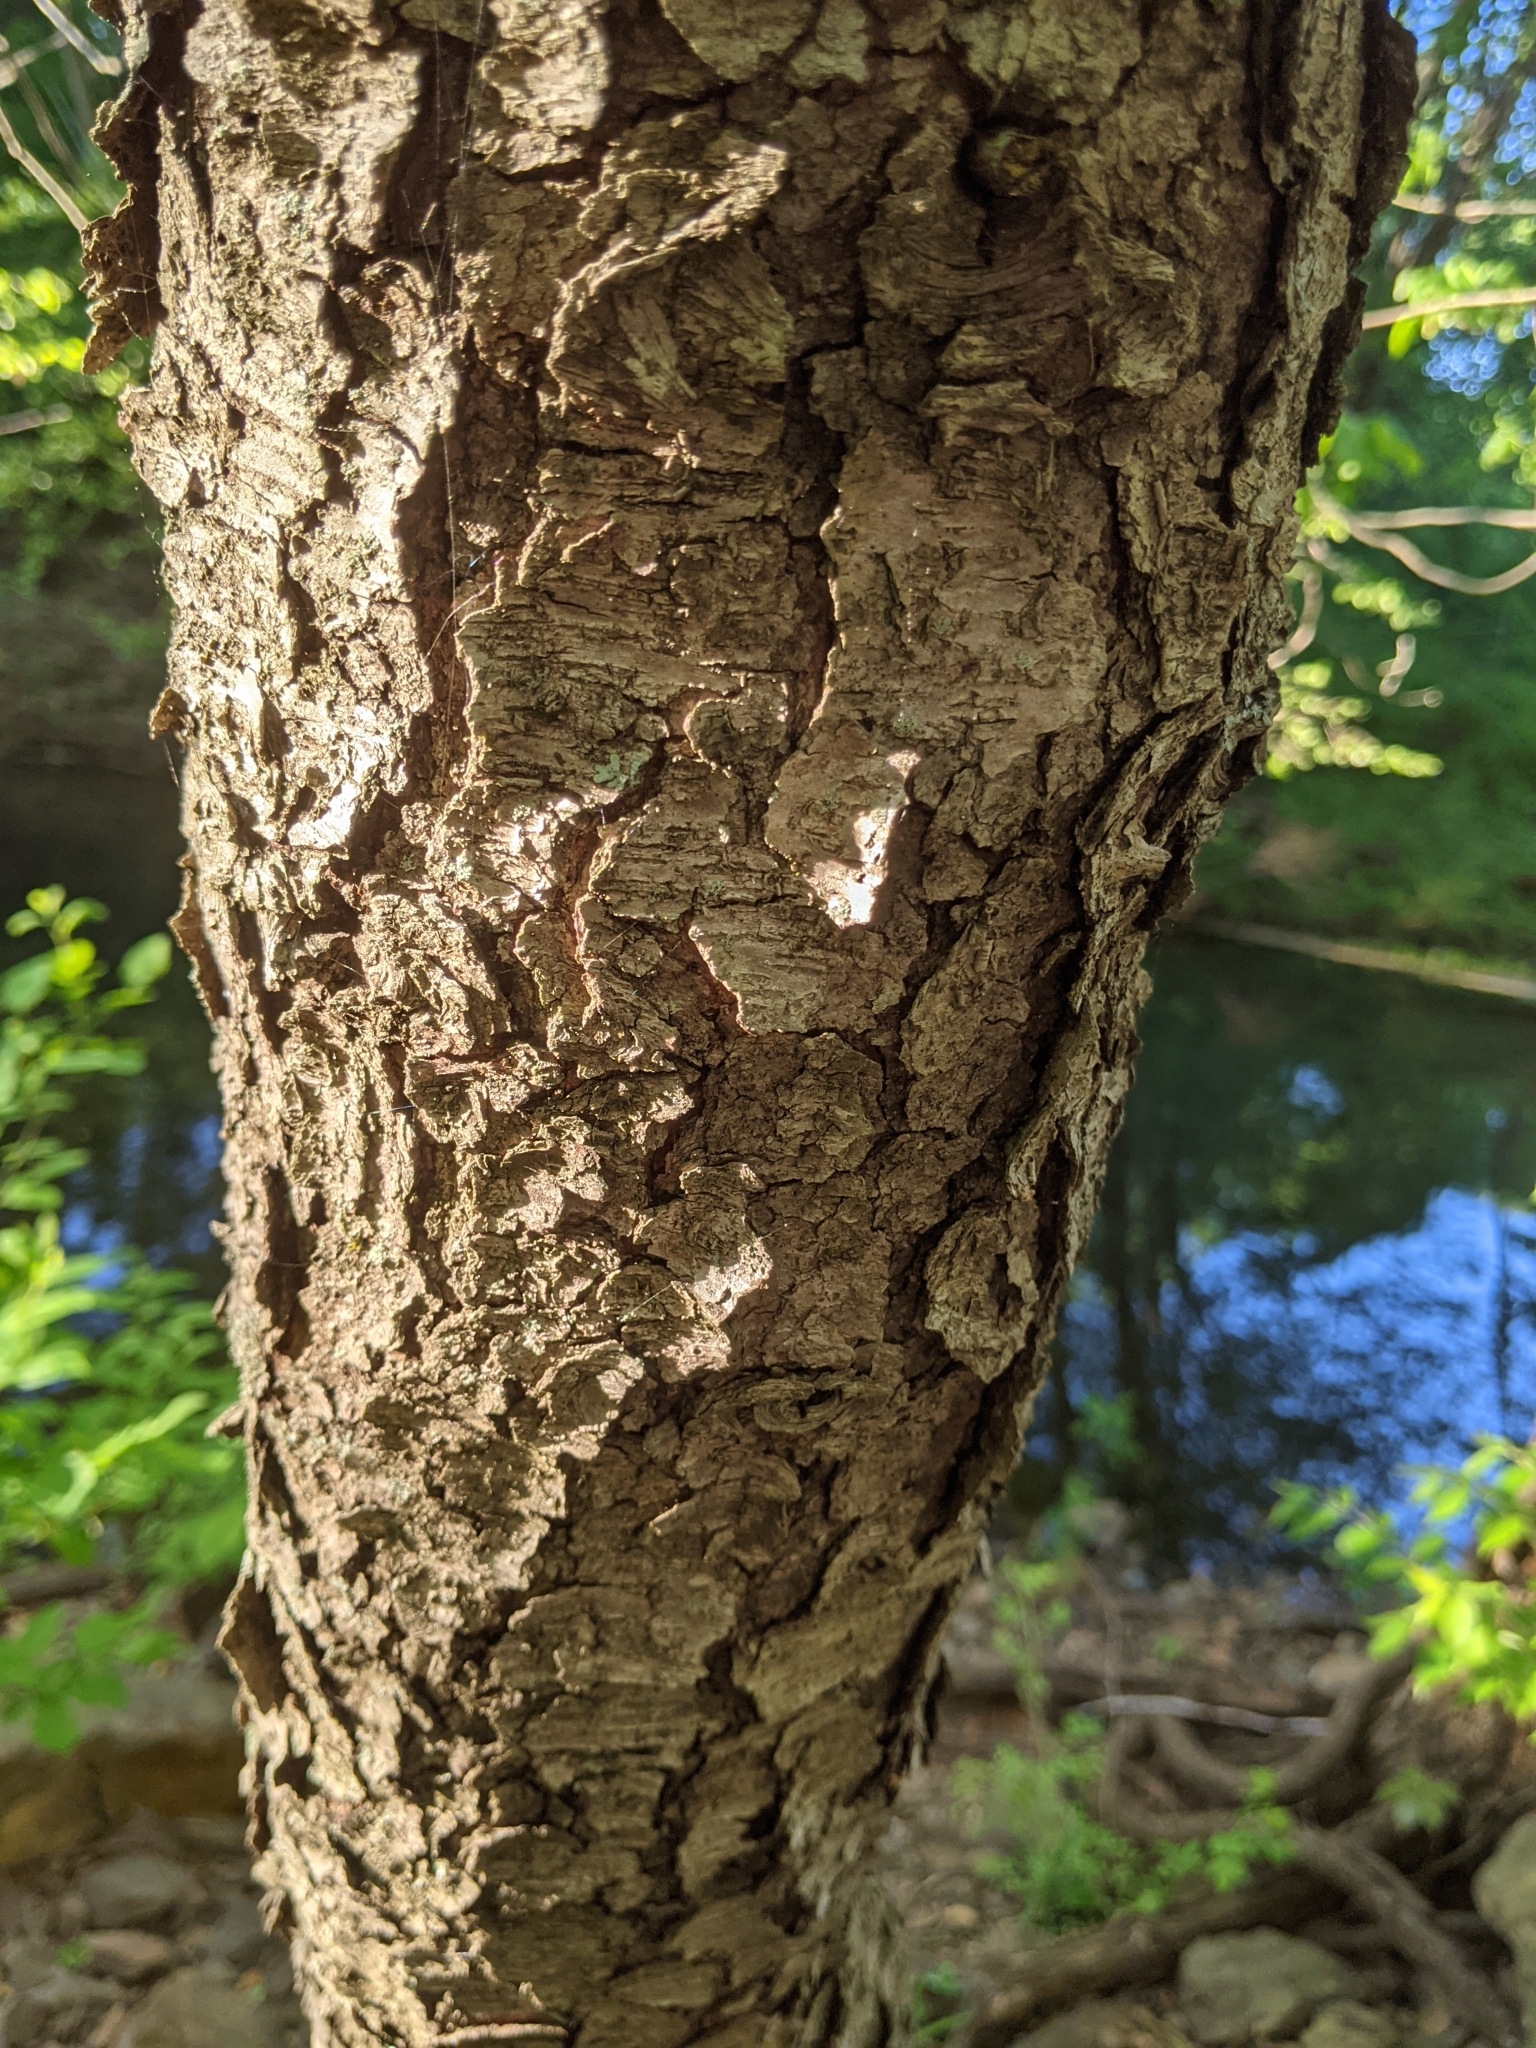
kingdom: Plantae
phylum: Tracheophyta
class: Magnoliopsida
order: Rosales
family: Rosaceae
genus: Prunus
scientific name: Prunus serotina
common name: Black cherry
